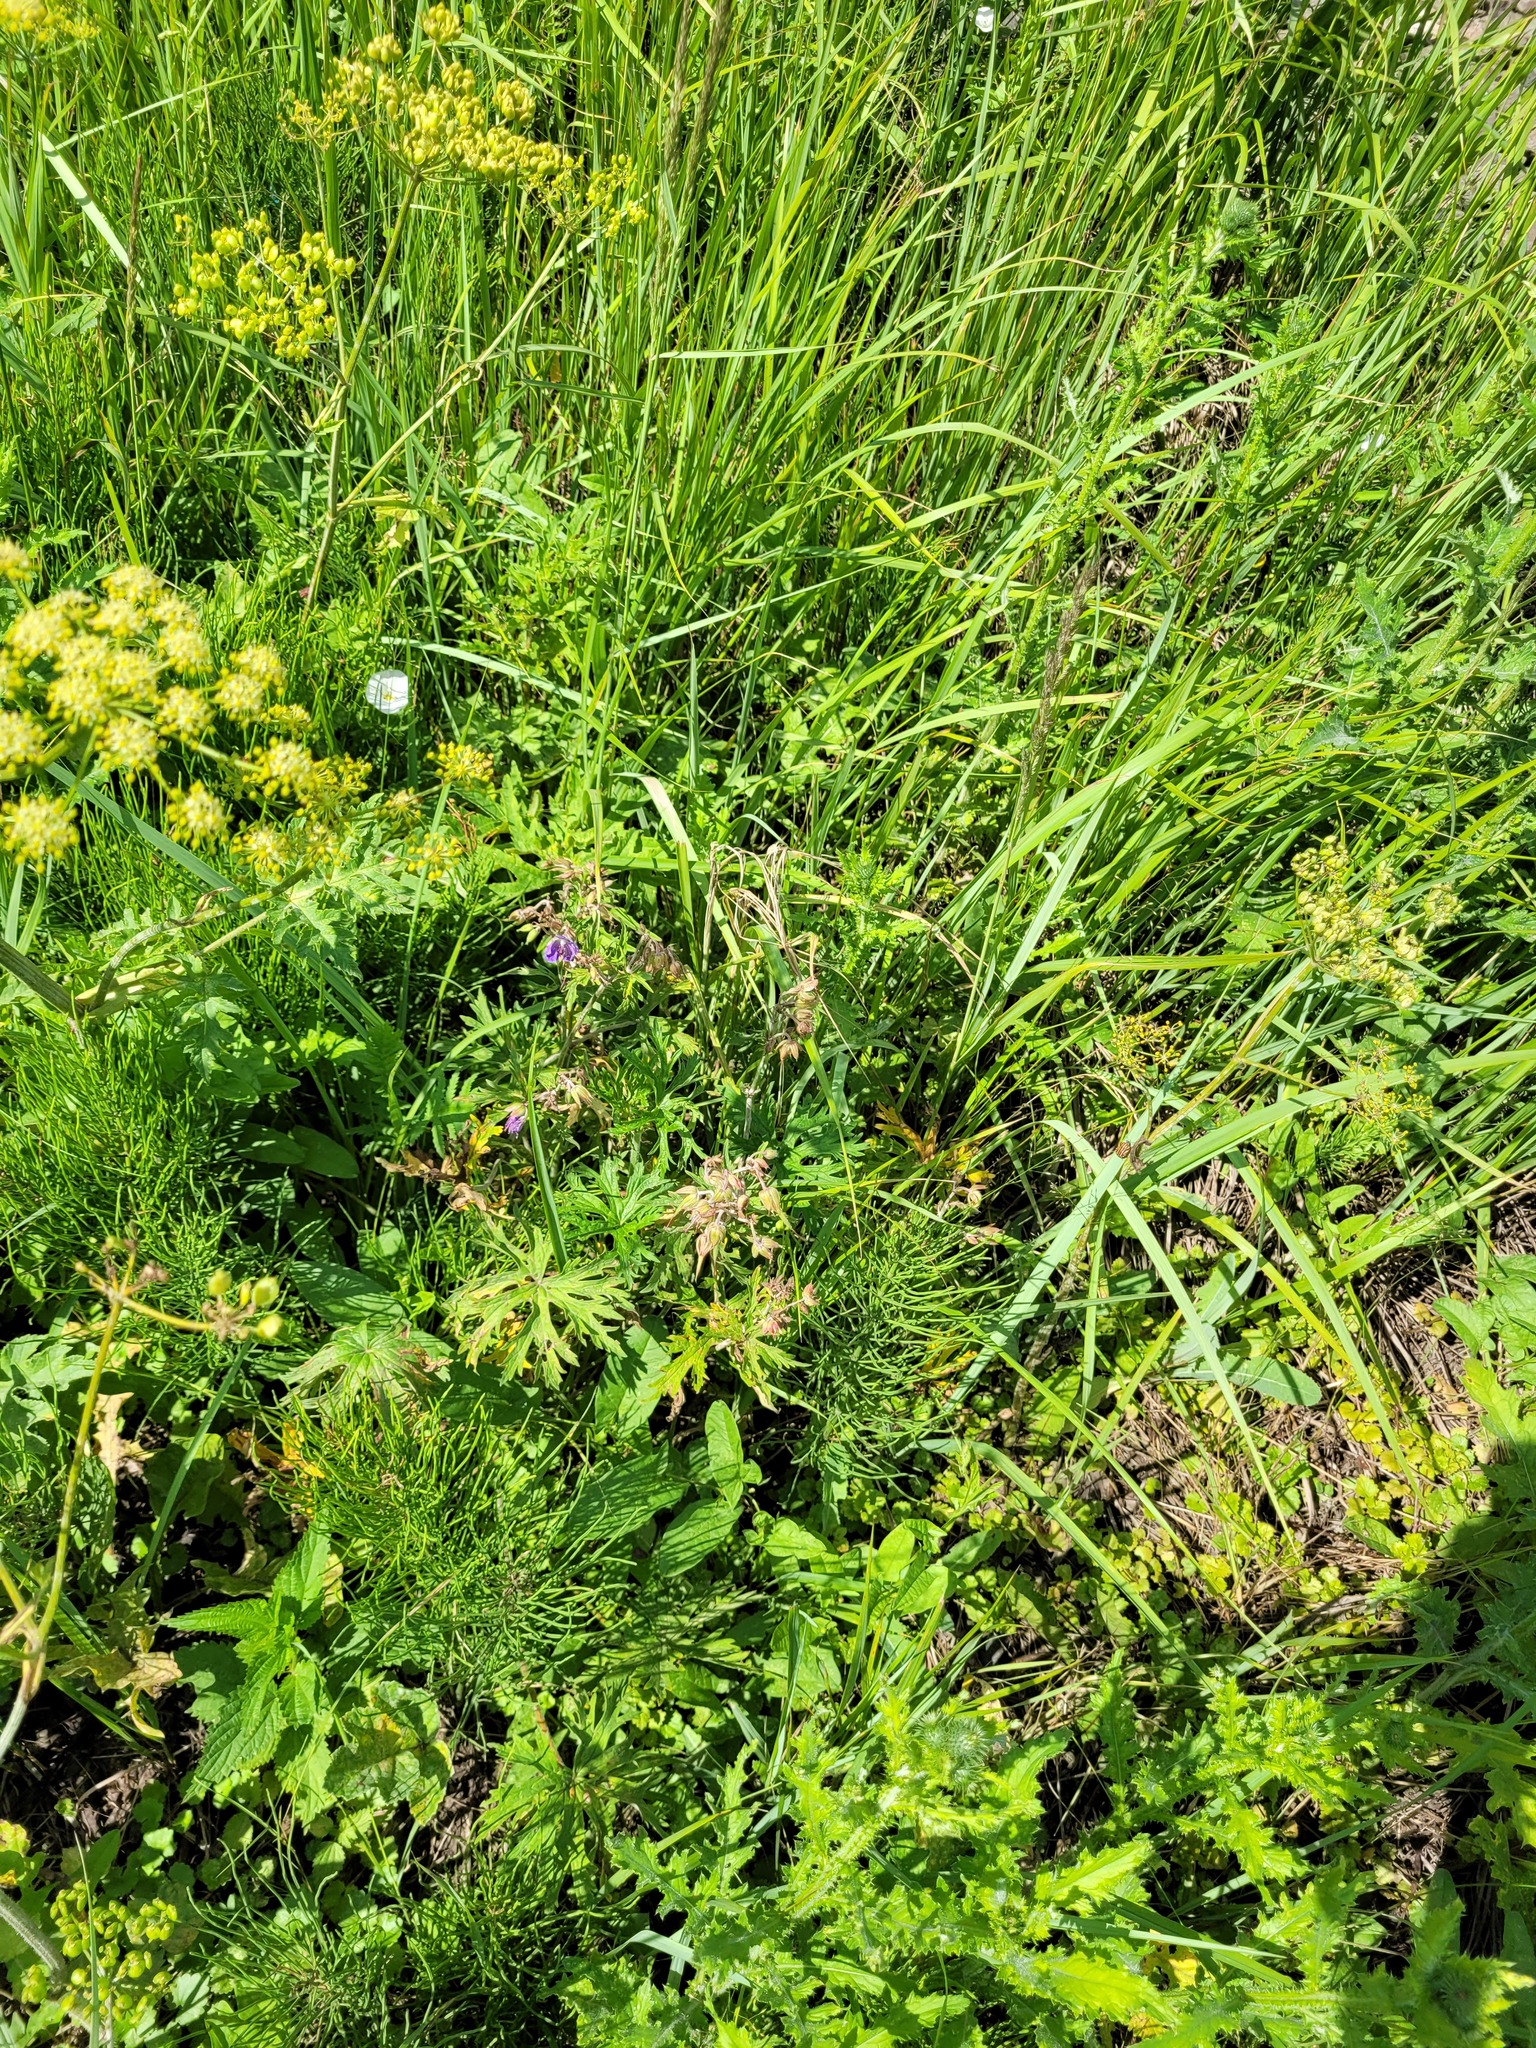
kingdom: Plantae
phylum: Tracheophyta
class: Magnoliopsida
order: Geraniales
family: Geraniaceae
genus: Geranium
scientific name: Geranium pratense
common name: Meadow crane's-bill
